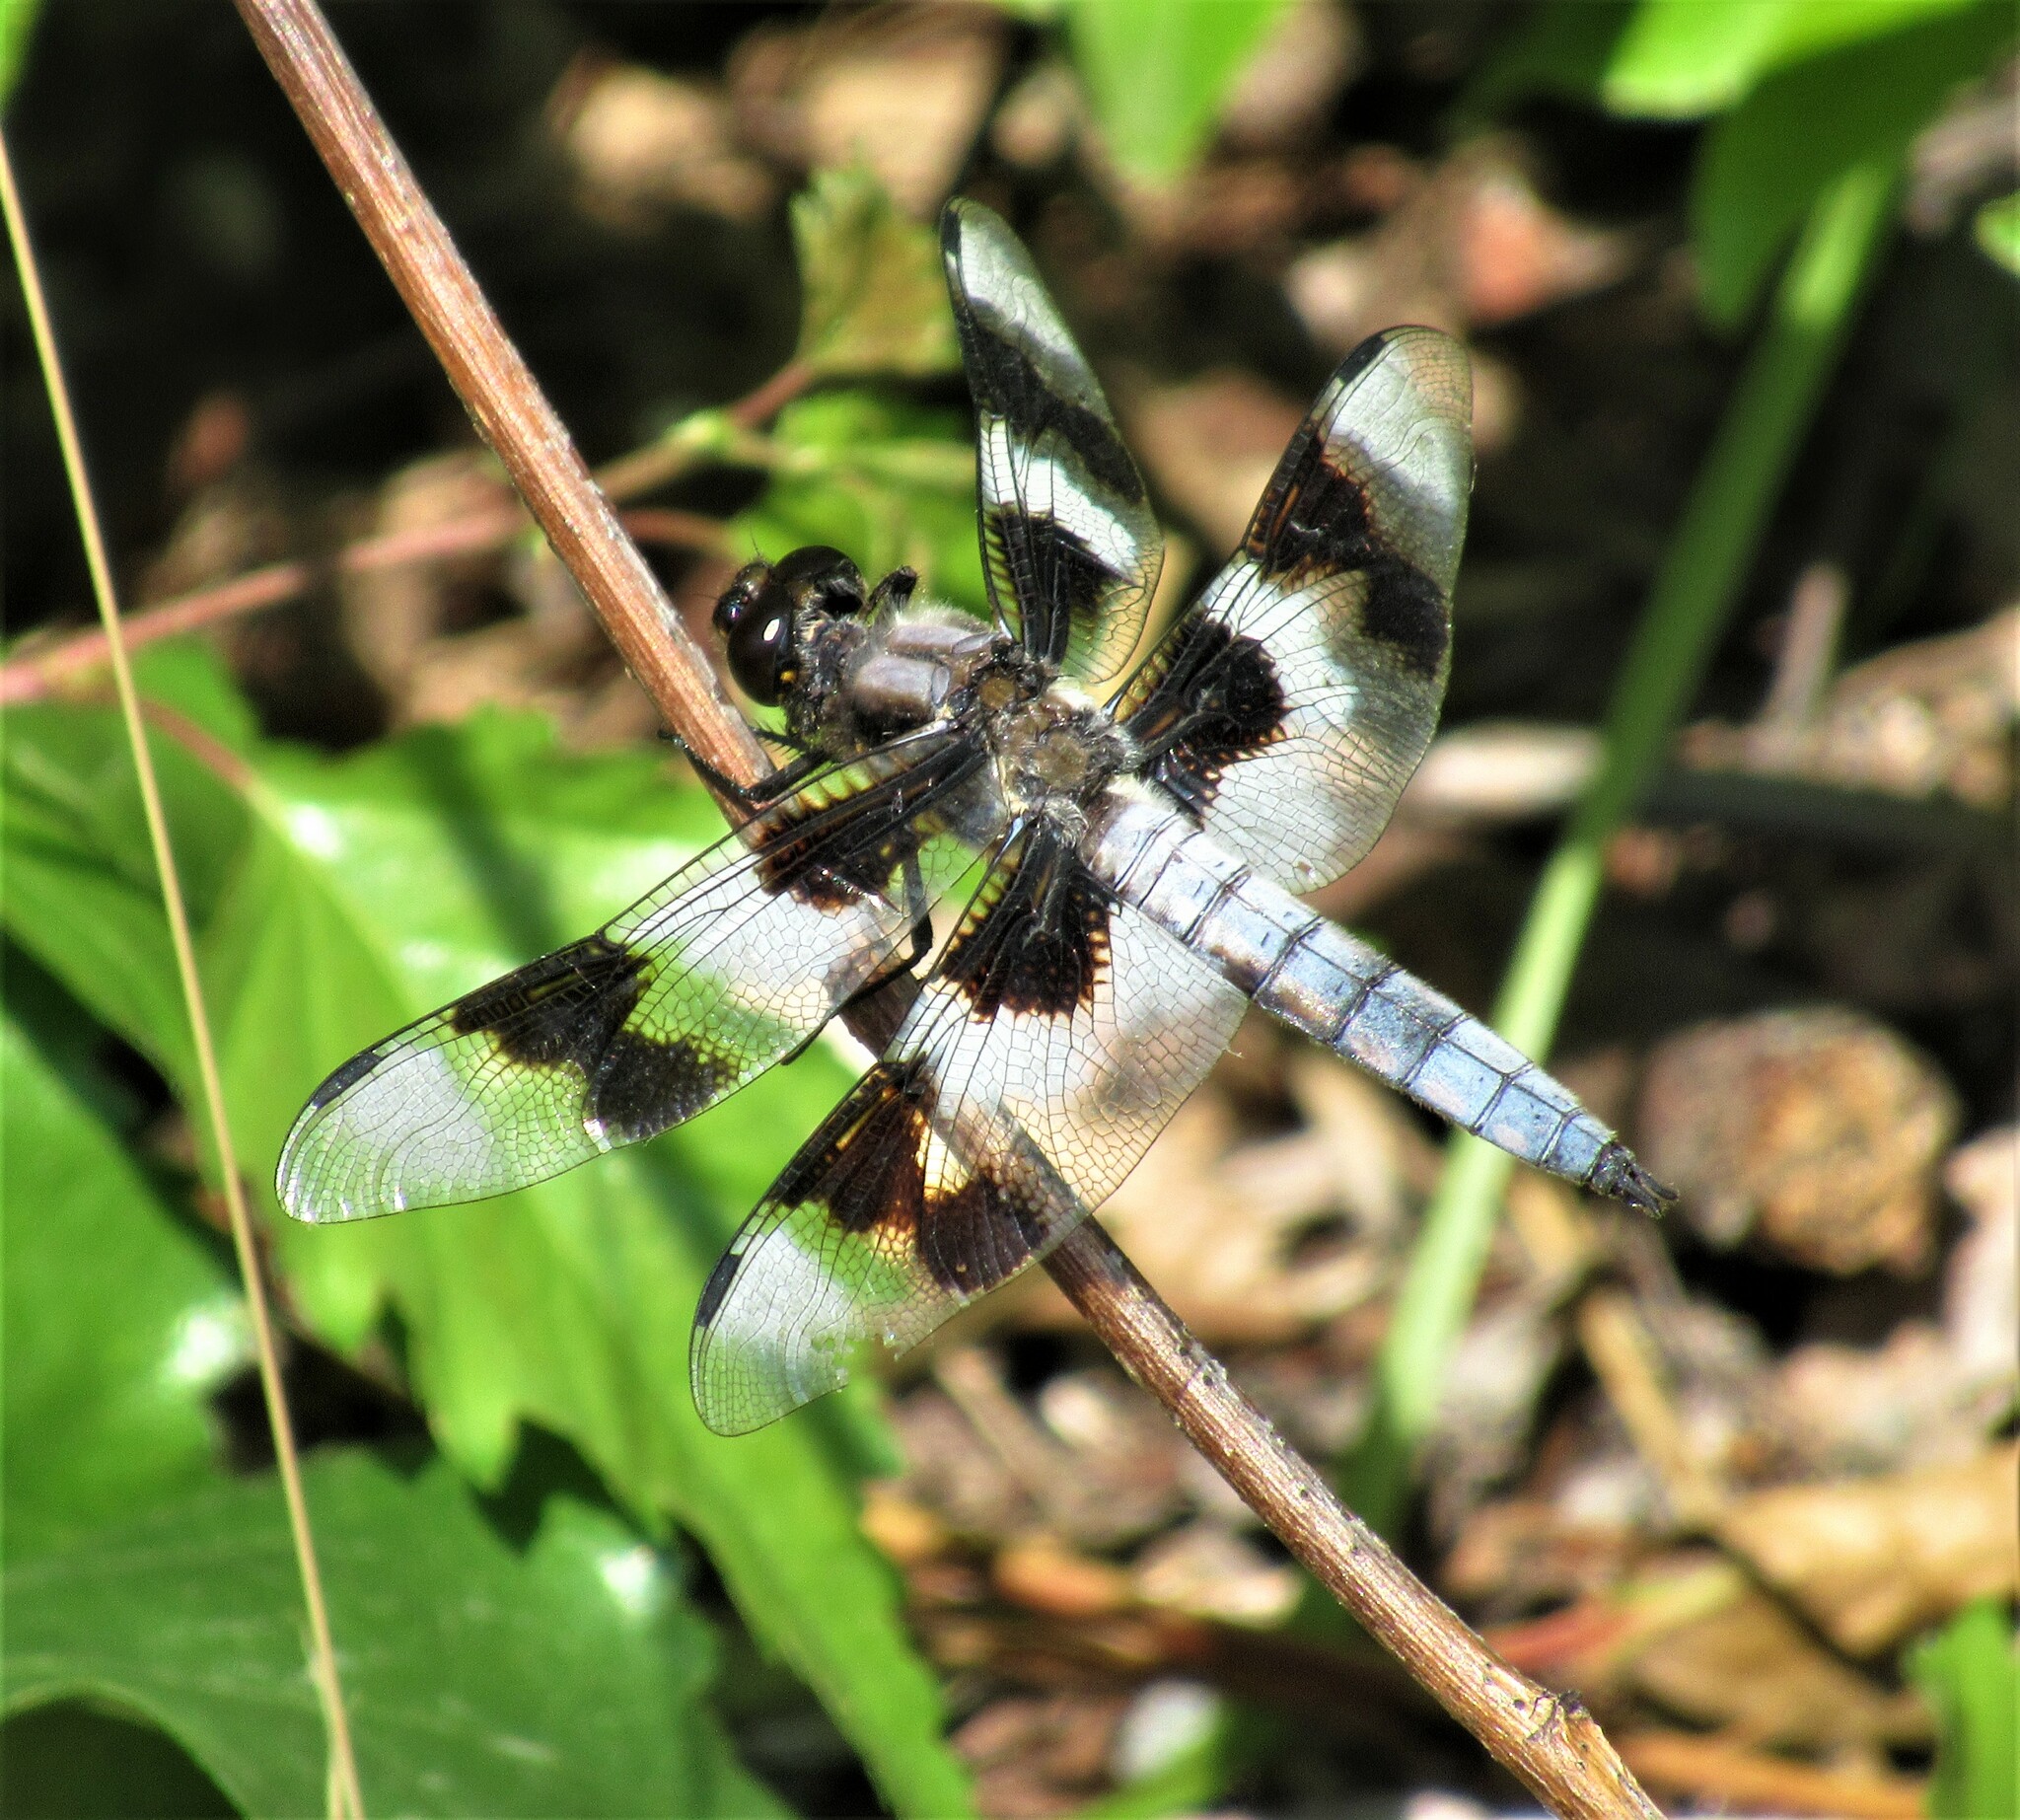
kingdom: Animalia
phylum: Arthropoda
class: Insecta
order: Odonata
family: Libellulidae
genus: Libellula
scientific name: Libellula forensis
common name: Eight-spotted skimmer
